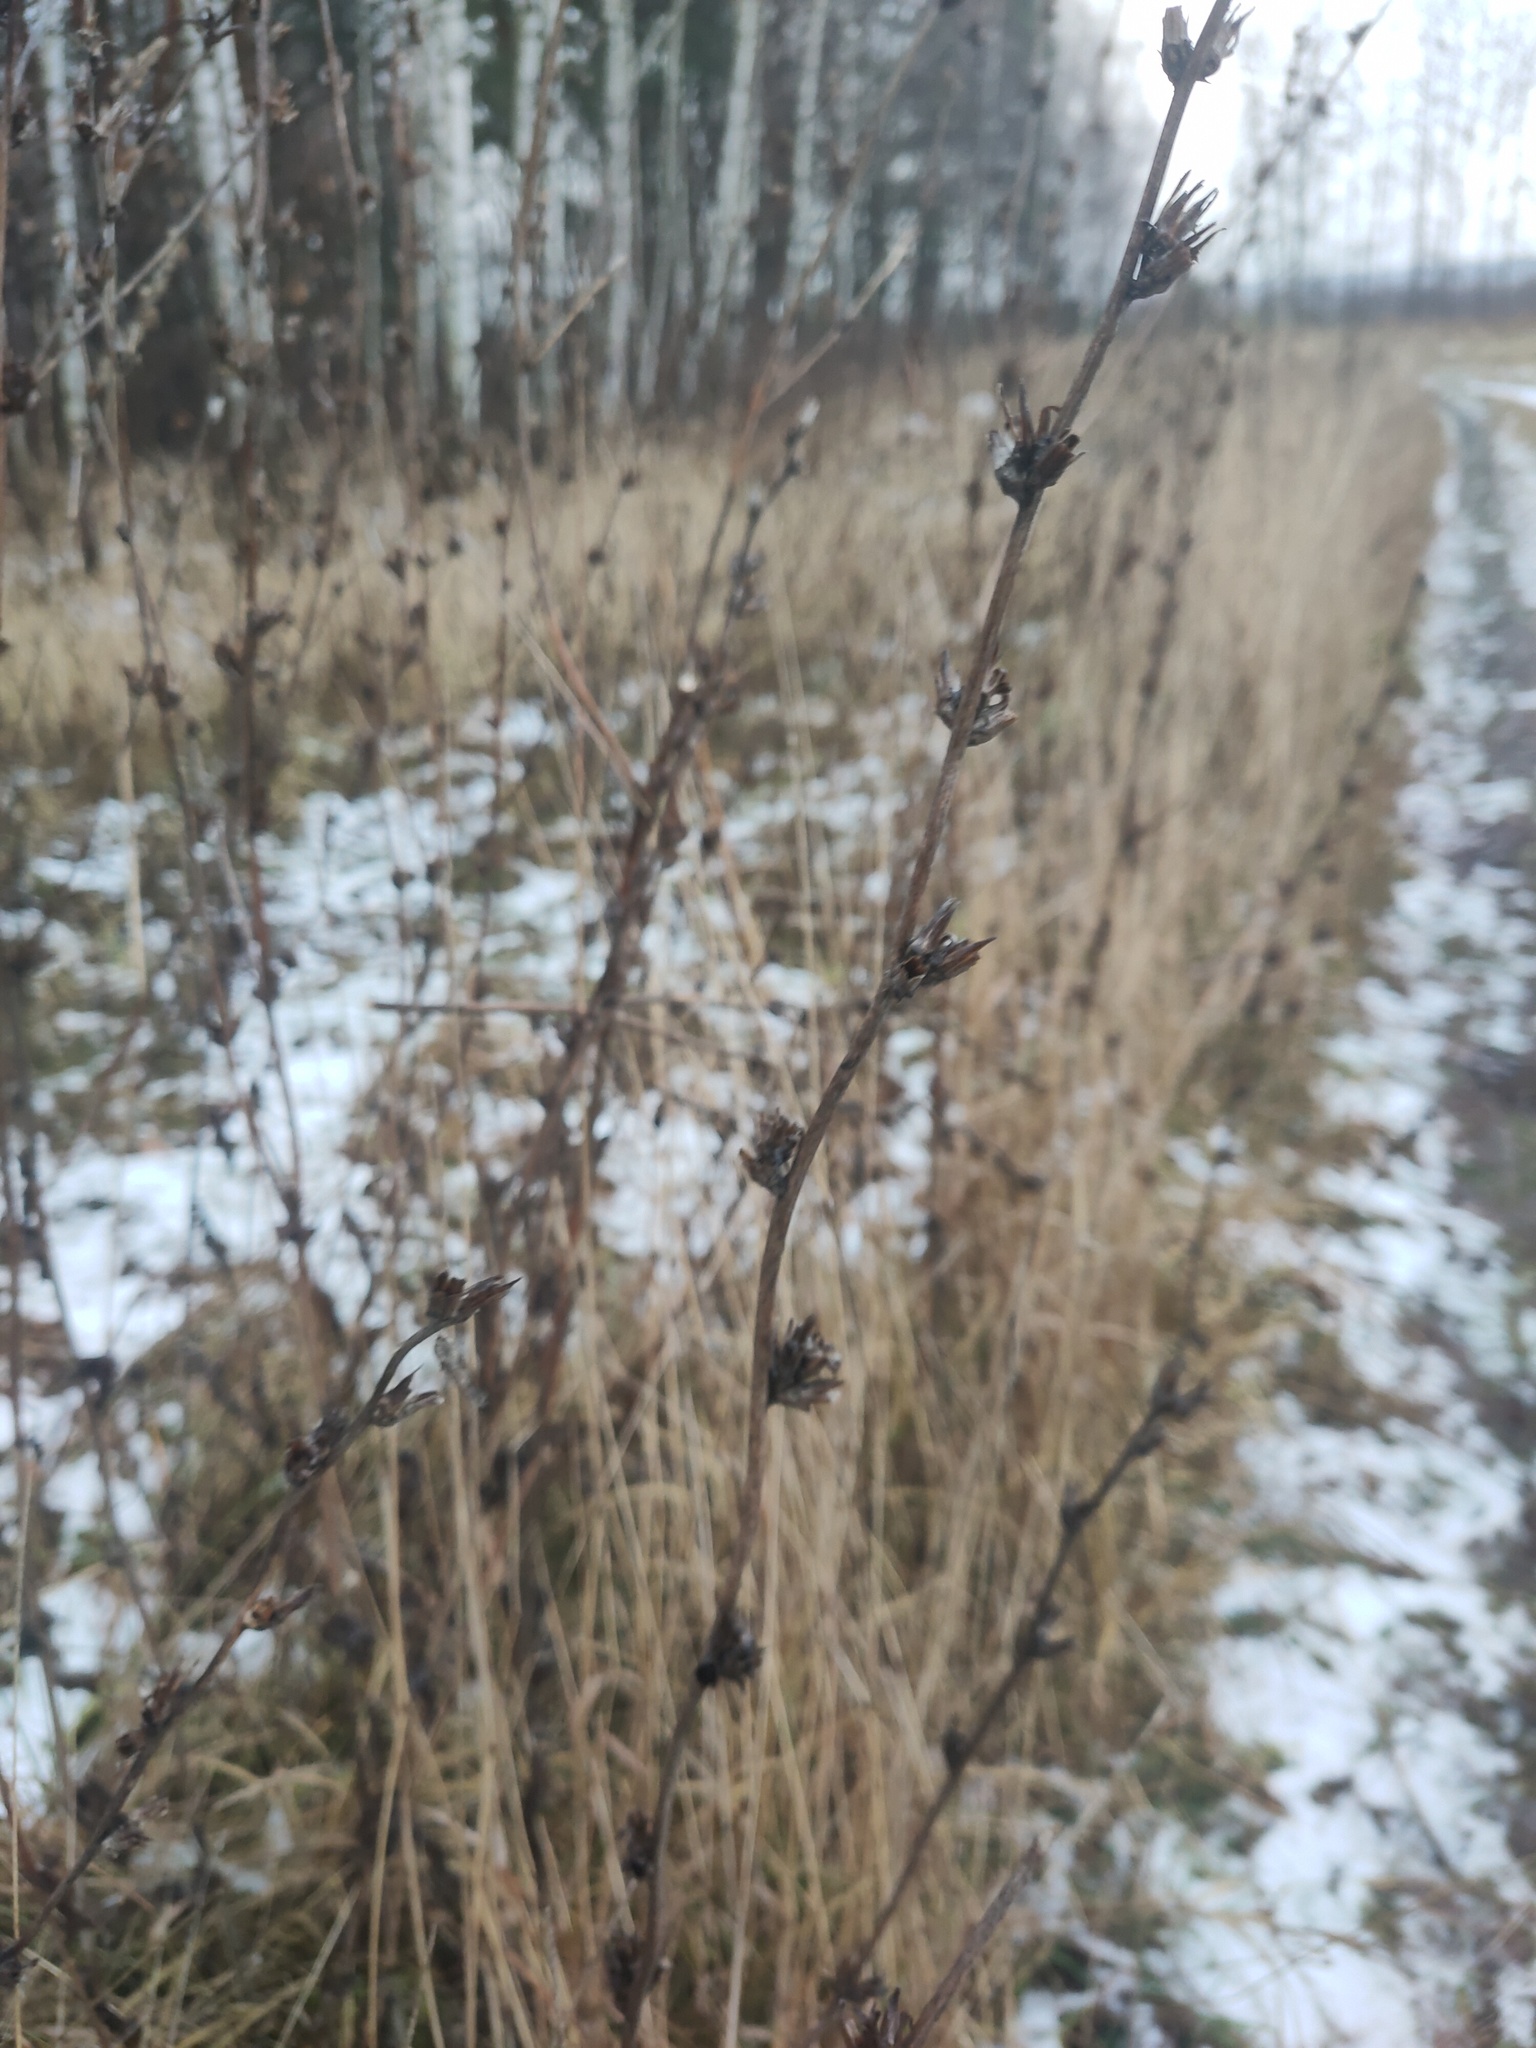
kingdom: Plantae
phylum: Tracheophyta
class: Magnoliopsida
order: Asterales
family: Asteraceae
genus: Cichorium
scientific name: Cichorium intybus
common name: Chicory
